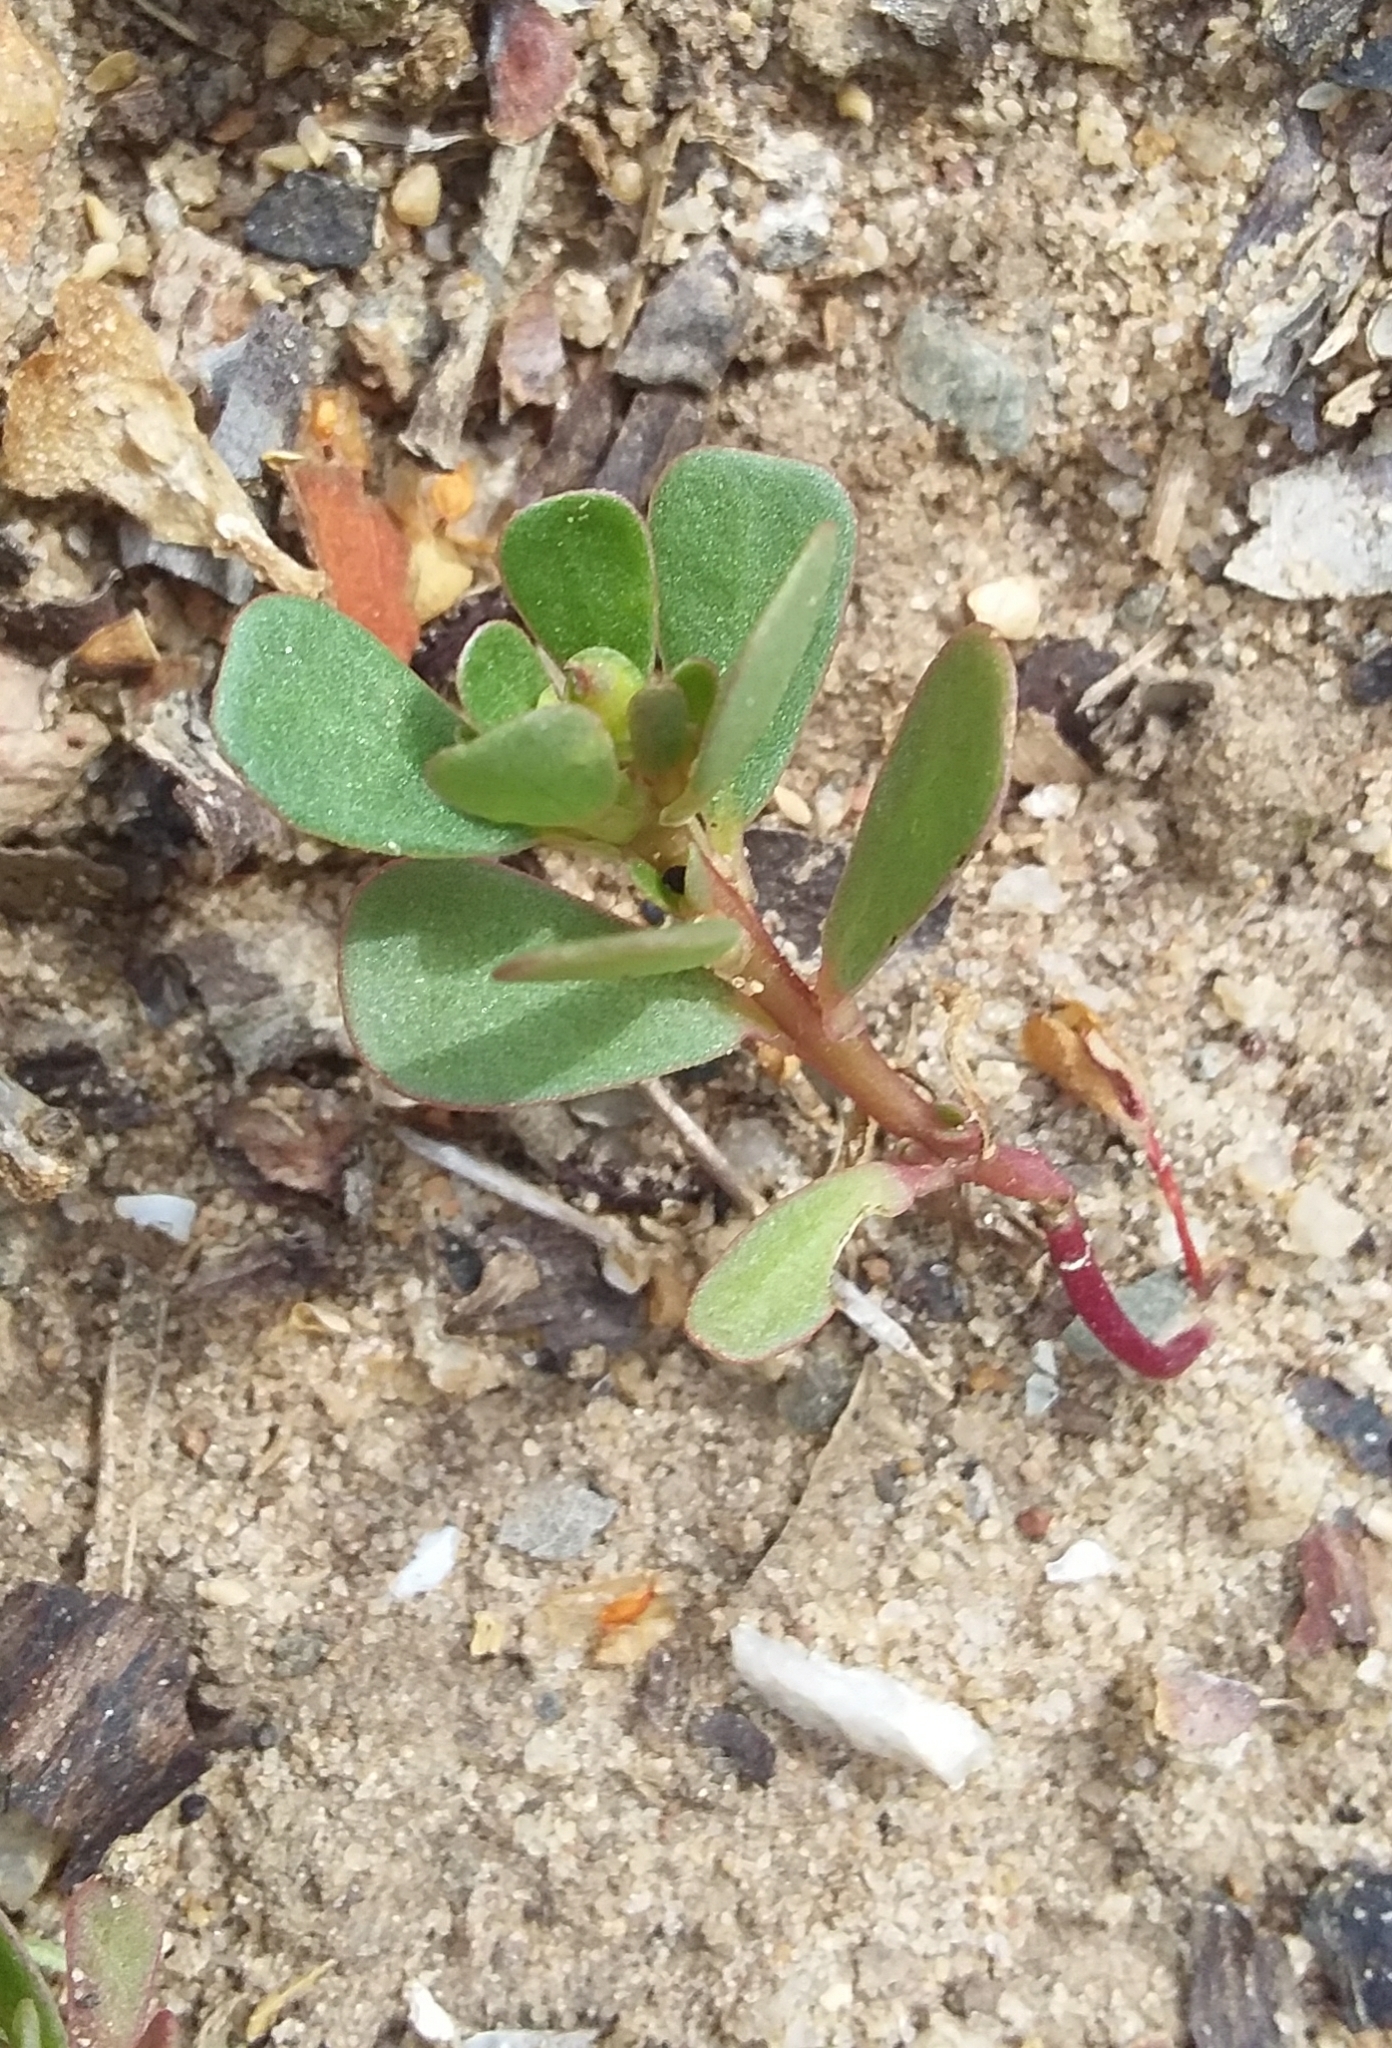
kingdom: Plantae
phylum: Tracheophyta
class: Magnoliopsida
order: Caryophyllales
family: Portulacaceae
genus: Portulaca
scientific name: Portulaca oleracea
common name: Common purslane
